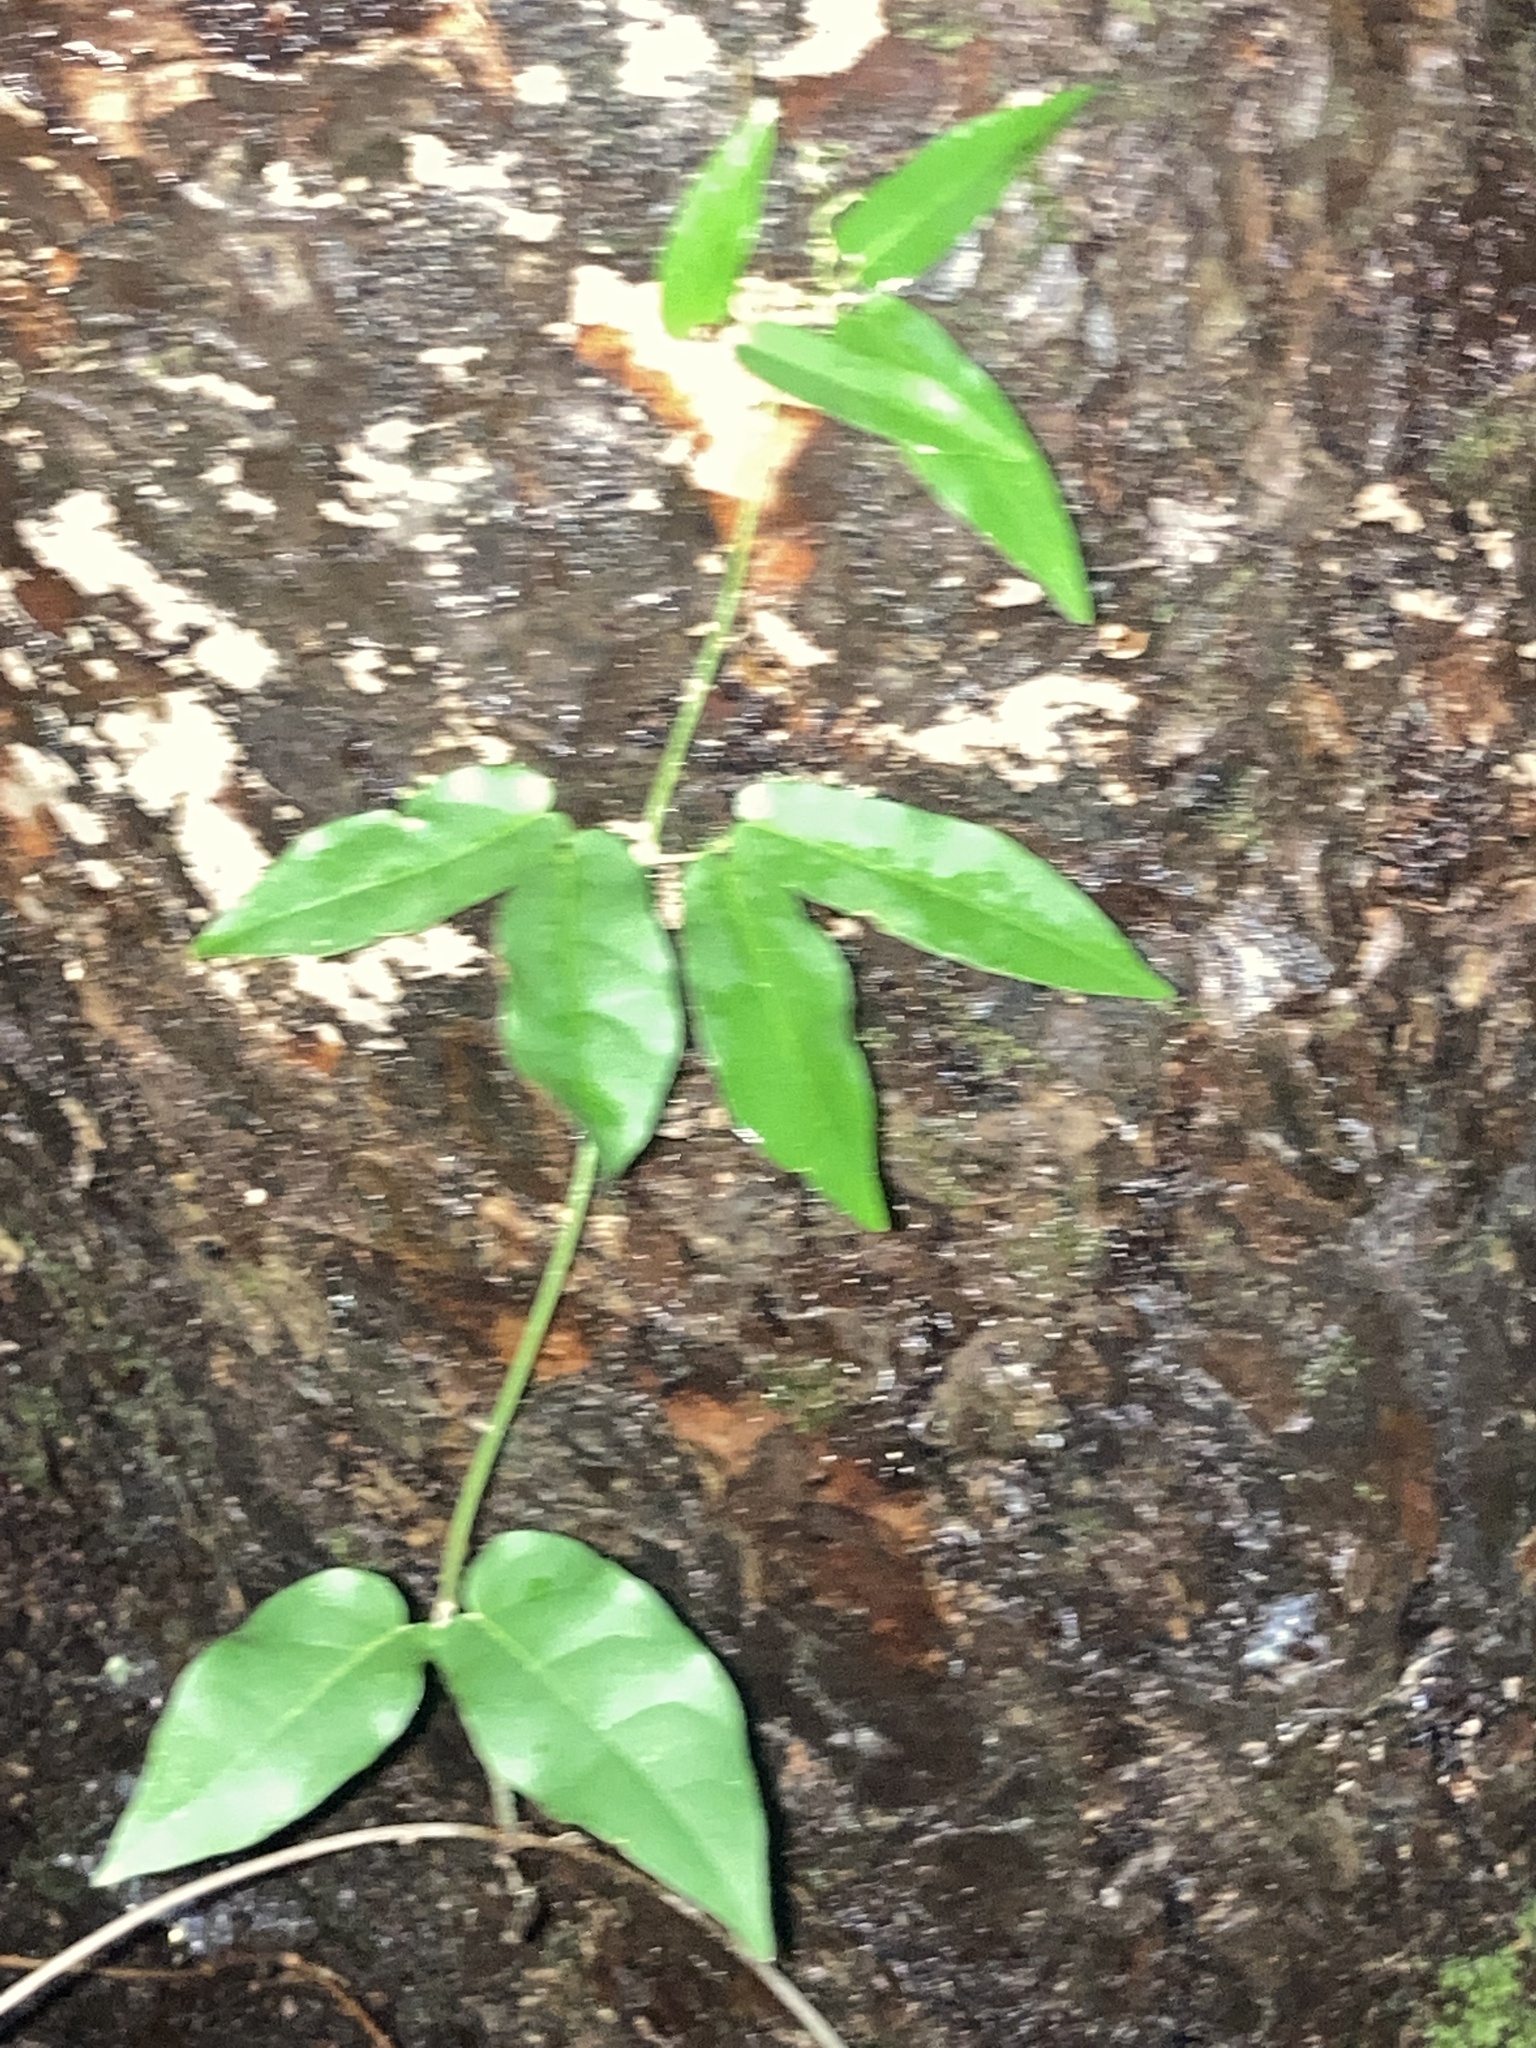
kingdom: Plantae
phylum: Tracheophyta
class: Magnoliopsida
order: Lamiales
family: Bignoniaceae
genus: Bignonia
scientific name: Bignonia capreolata
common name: Crossvine
